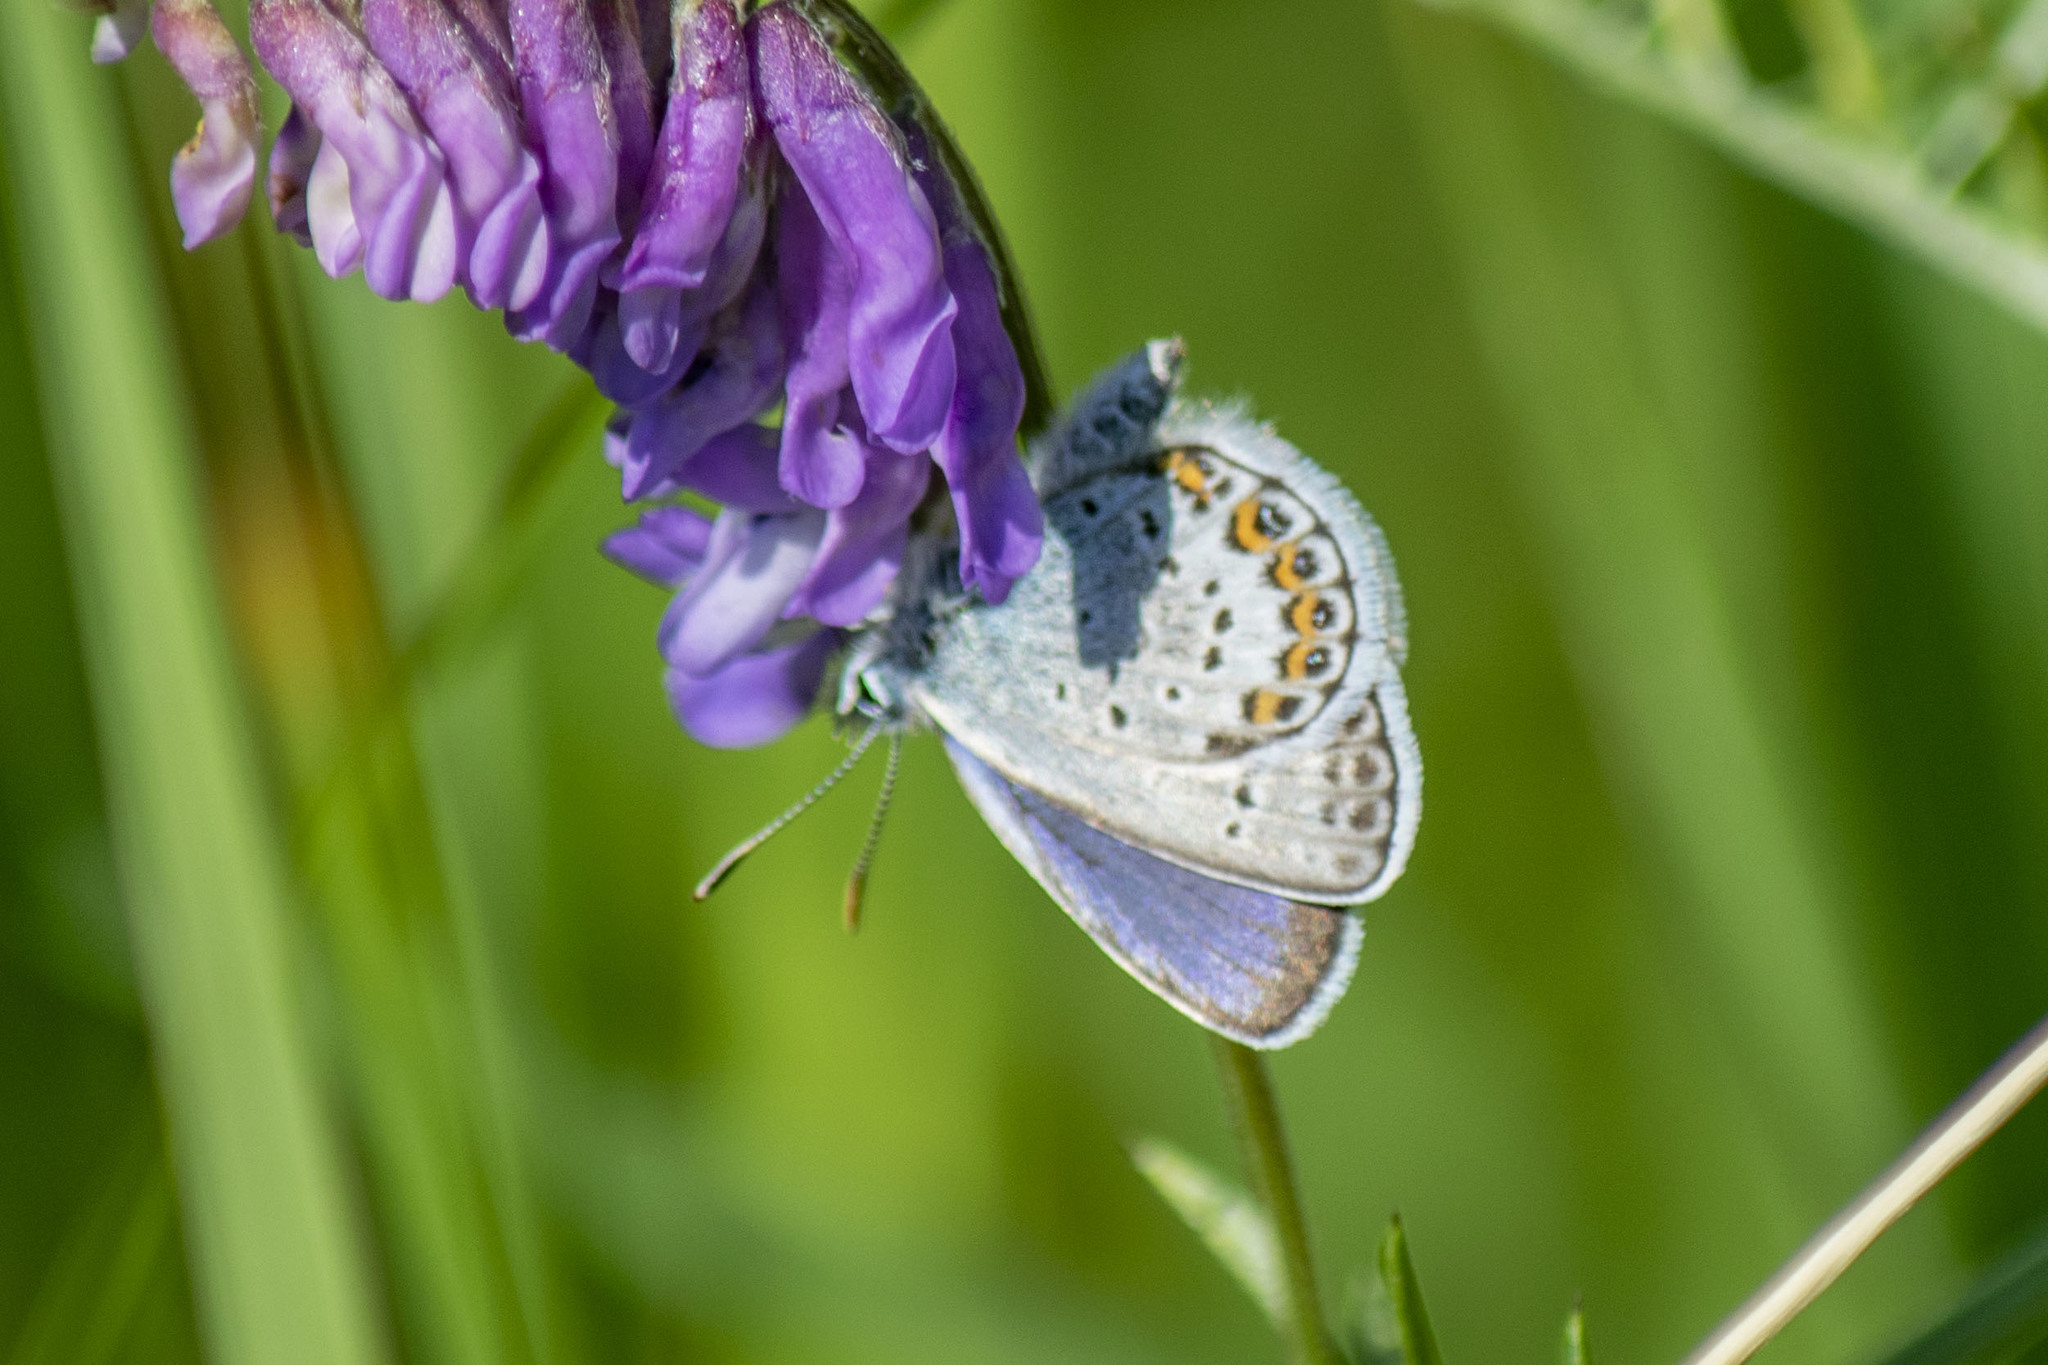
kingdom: Animalia
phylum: Arthropoda
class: Insecta
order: Lepidoptera
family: Lycaenidae
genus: Plebejus
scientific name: Plebejus argus
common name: Silver-studded blue
